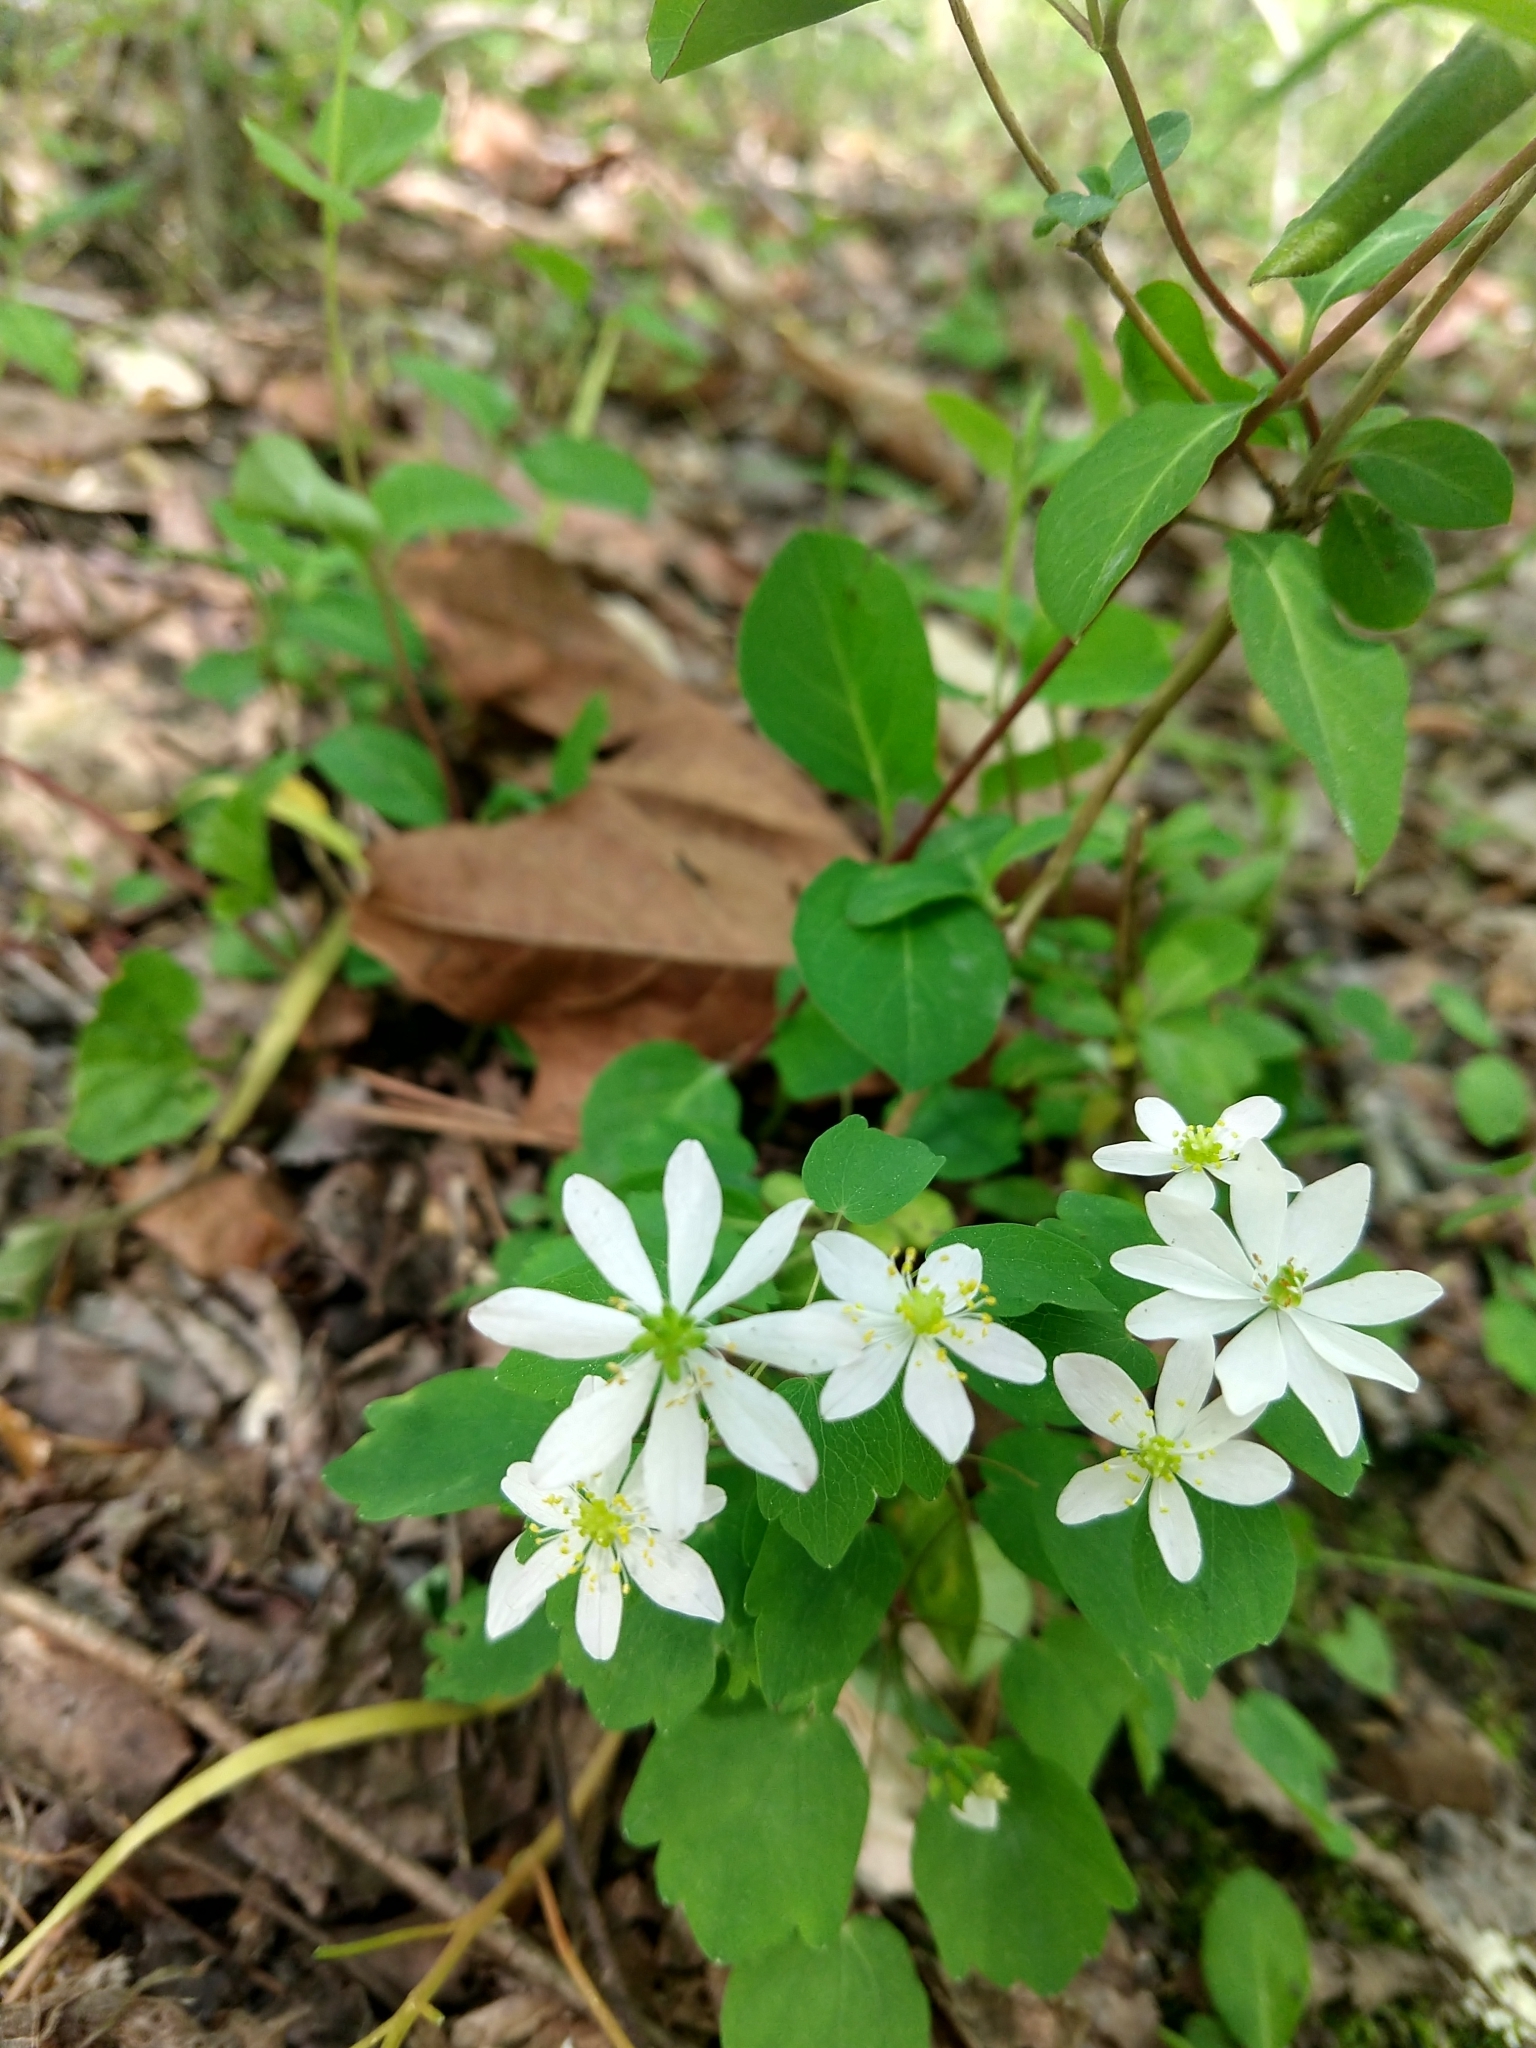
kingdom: Plantae
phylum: Tracheophyta
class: Magnoliopsida
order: Ranunculales
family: Ranunculaceae
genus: Thalictrum
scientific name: Thalictrum thalictroides
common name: Rue-anemone
